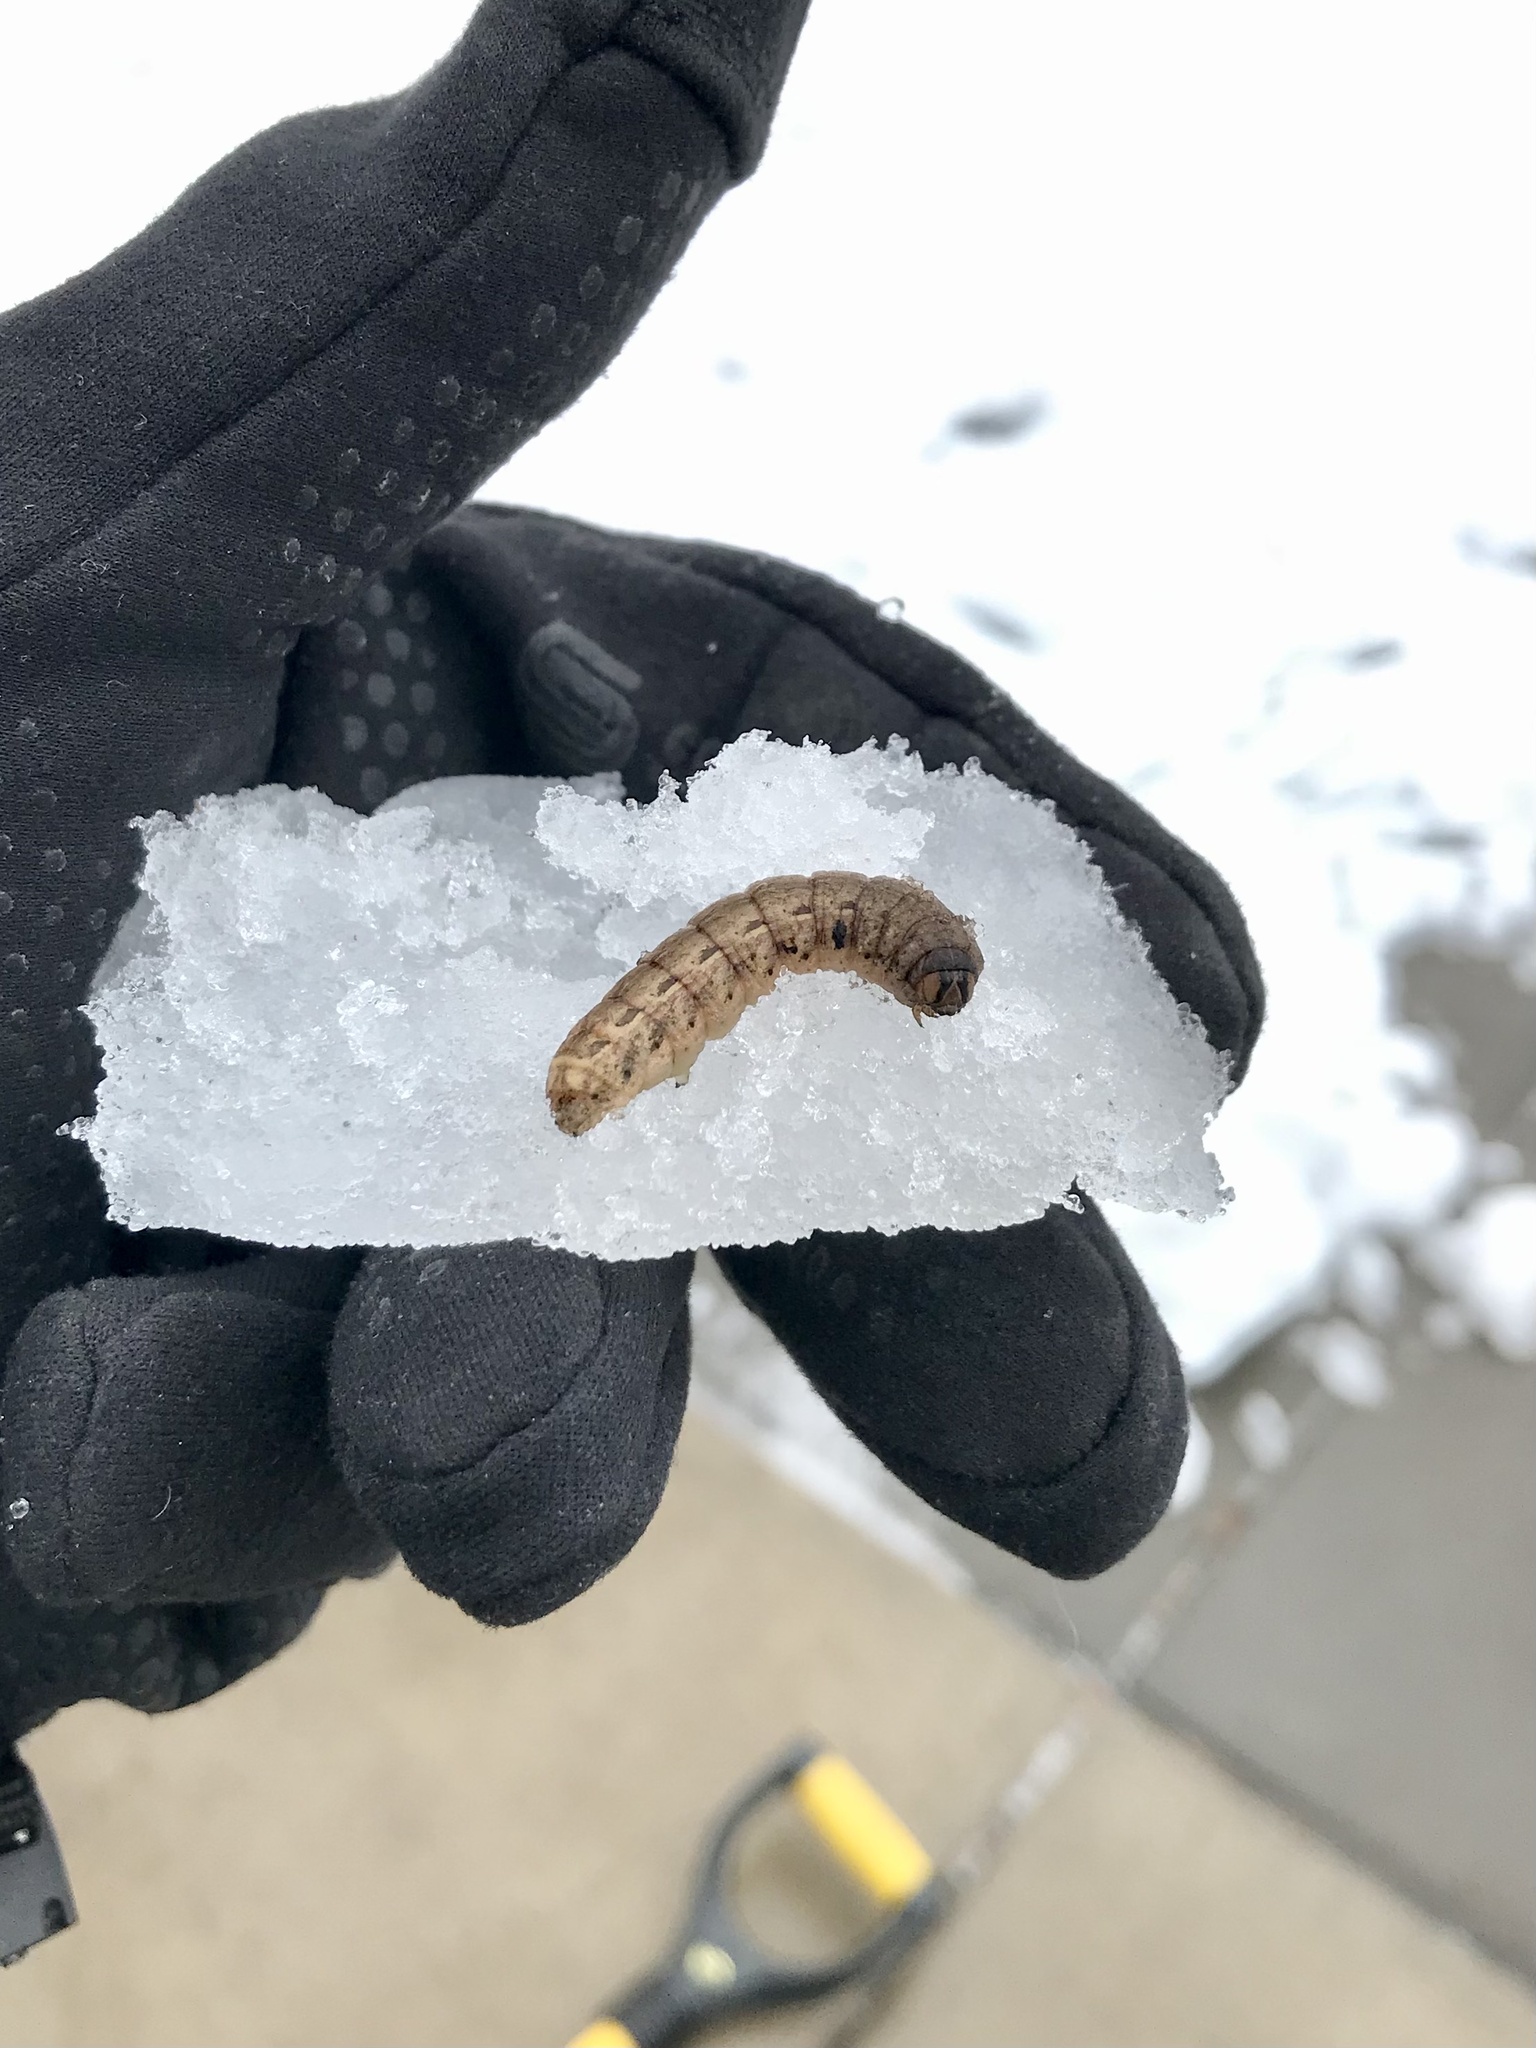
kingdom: Animalia
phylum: Arthropoda
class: Insecta
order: Lepidoptera
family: Noctuidae
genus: Noctua
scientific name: Noctua pronuba
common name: Large yellow underwing
